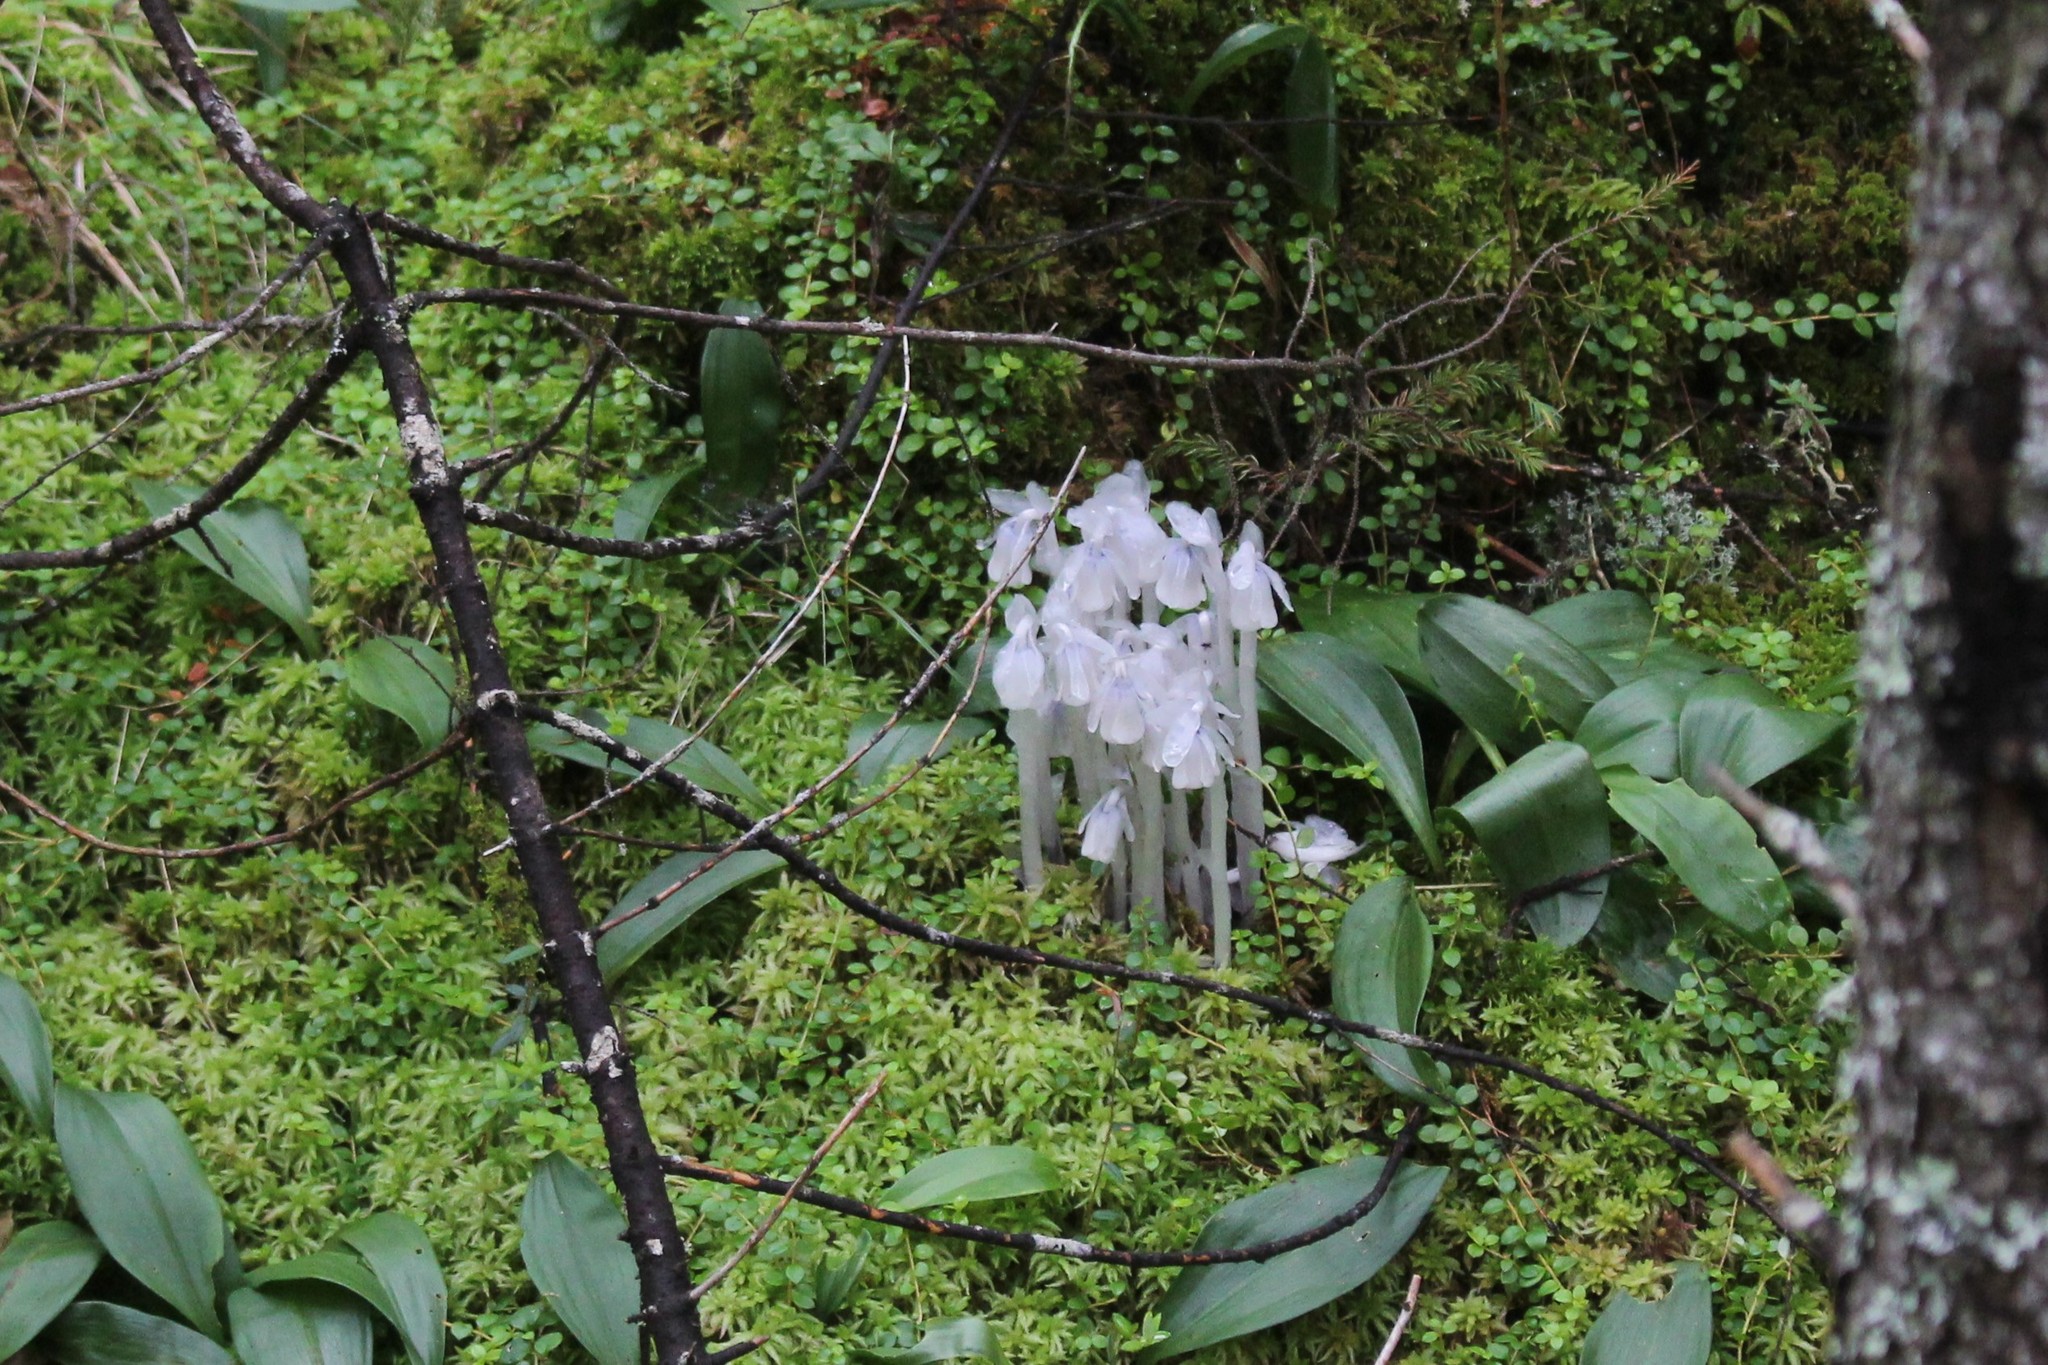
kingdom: Plantae
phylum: Tracheophyta
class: Magnoliopsida
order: Ericales
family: Ericaceae
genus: Monotropa
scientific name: Monotropa uniflora
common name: Convulsion root
